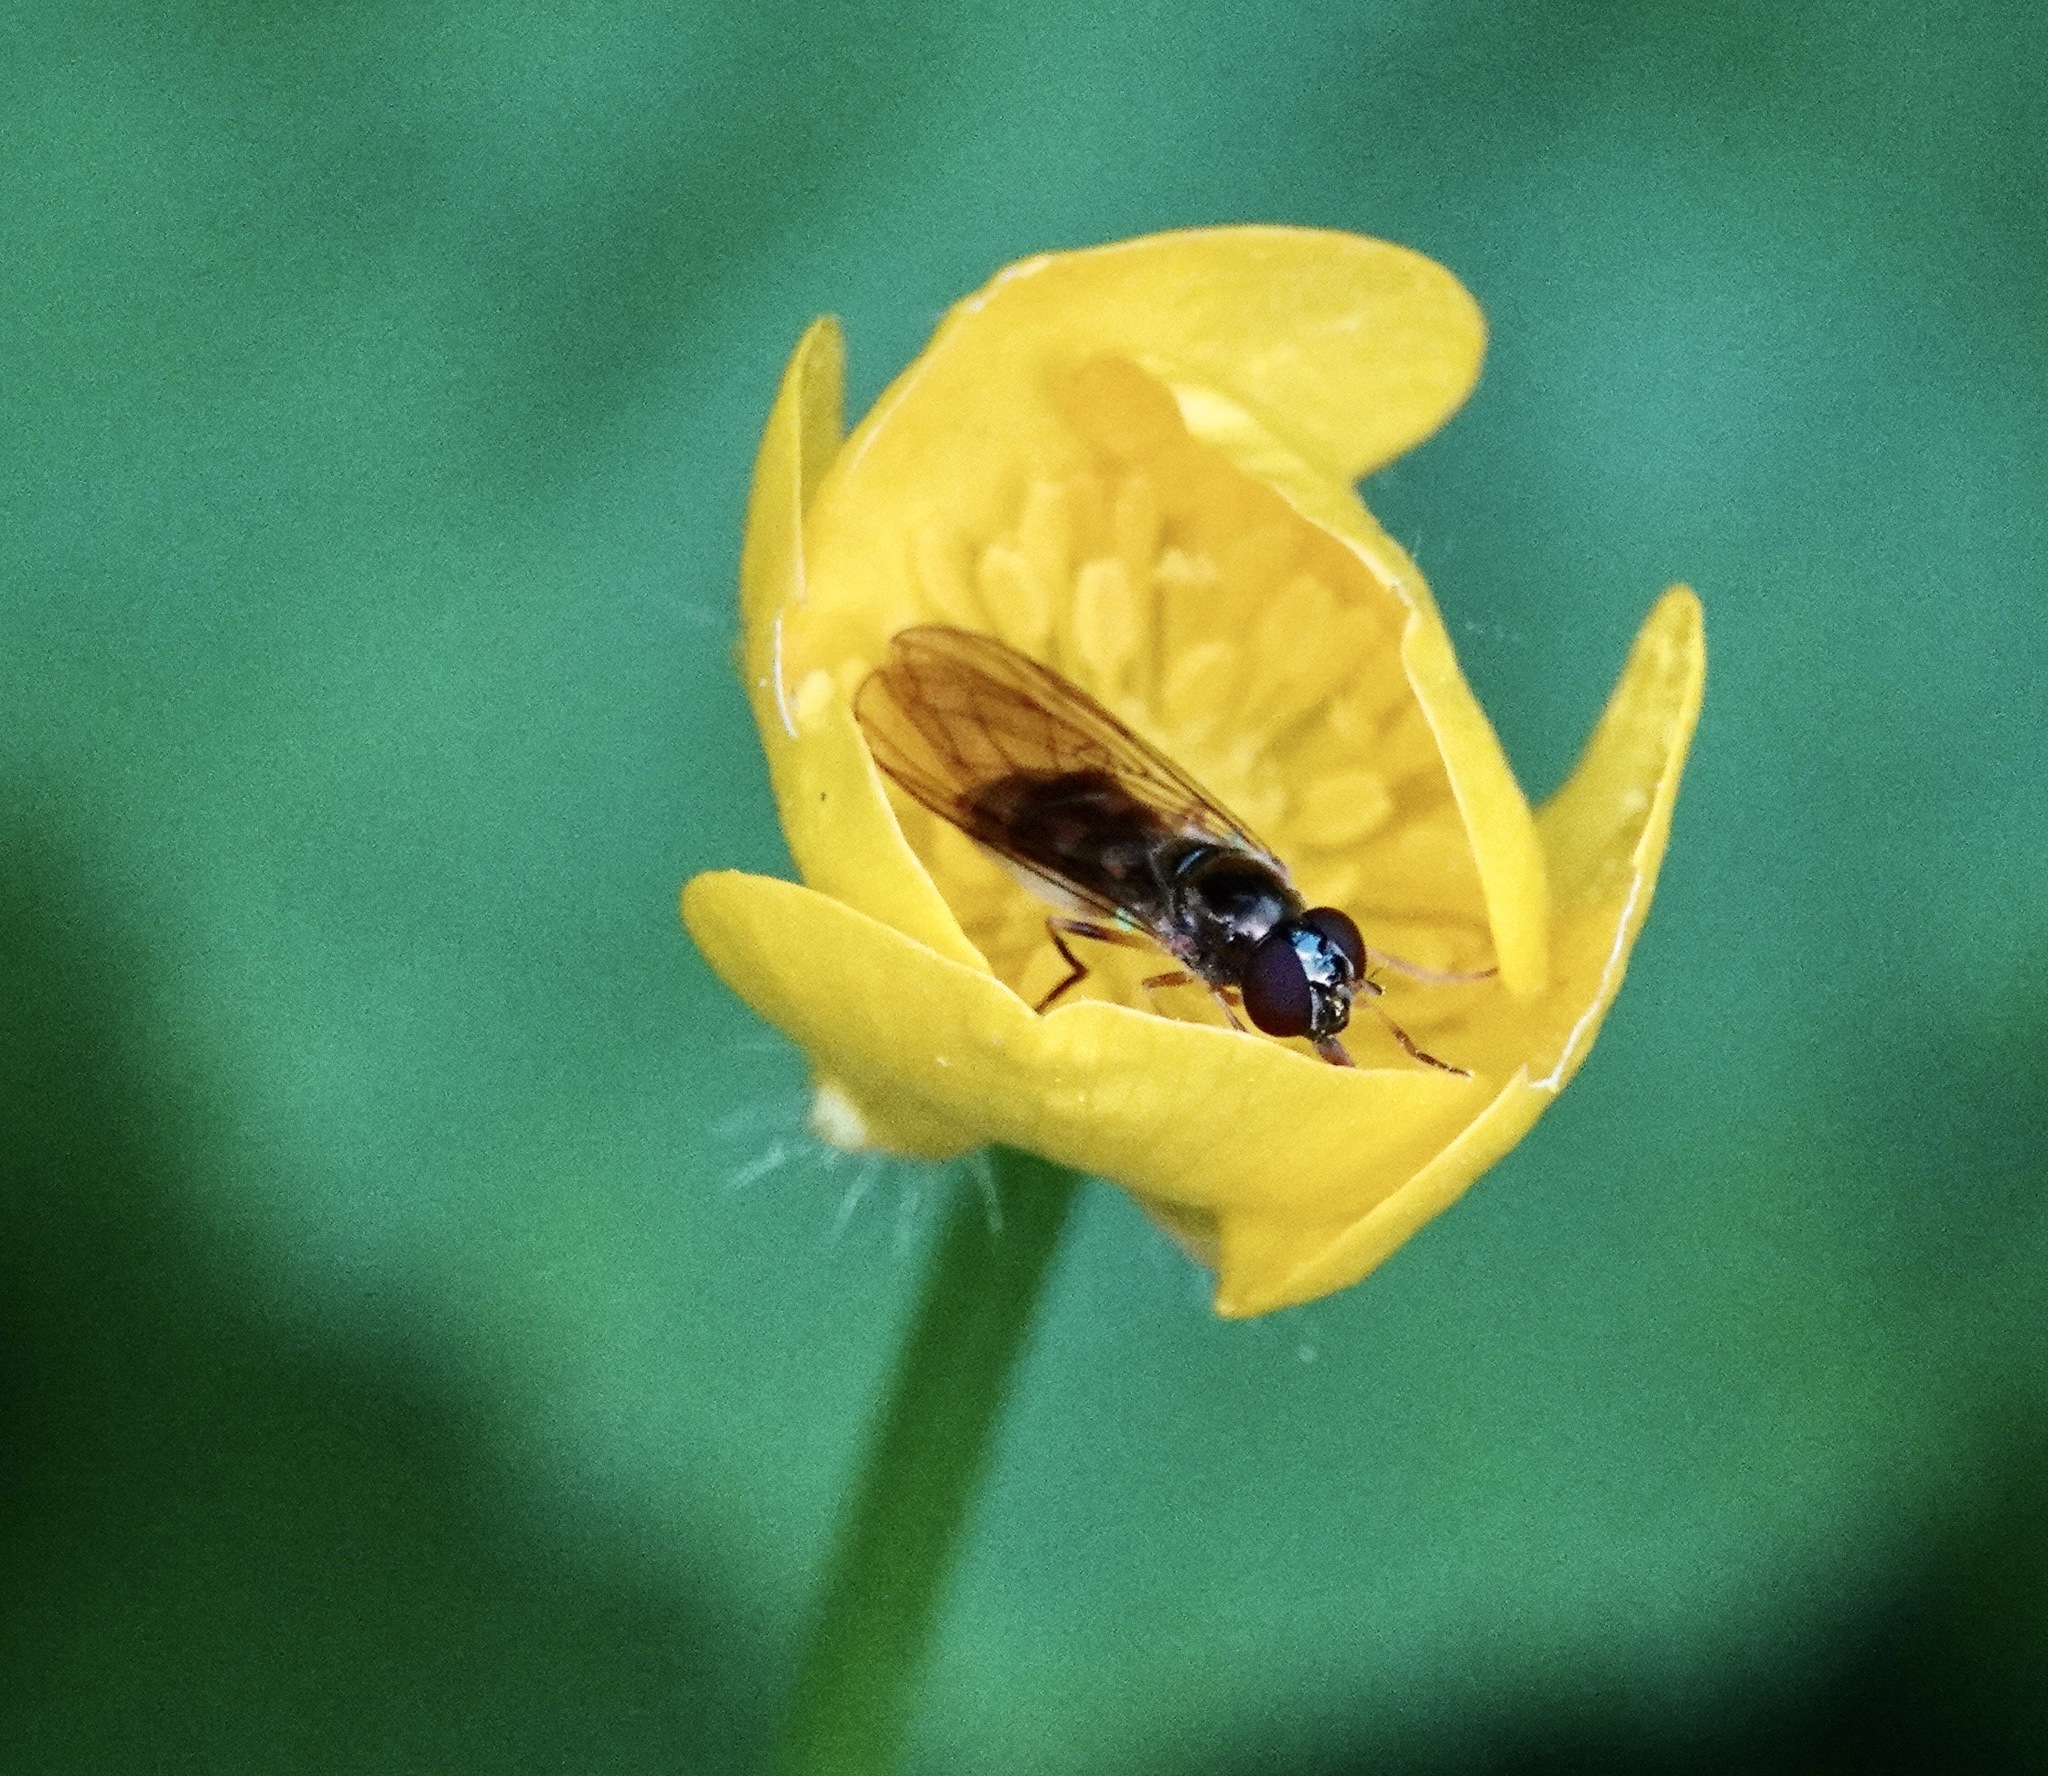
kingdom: Animalia
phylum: Arthropoda
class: Insecta
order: Diptera
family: Syrphidae
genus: Melanostoma
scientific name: Melanostoma scalare
